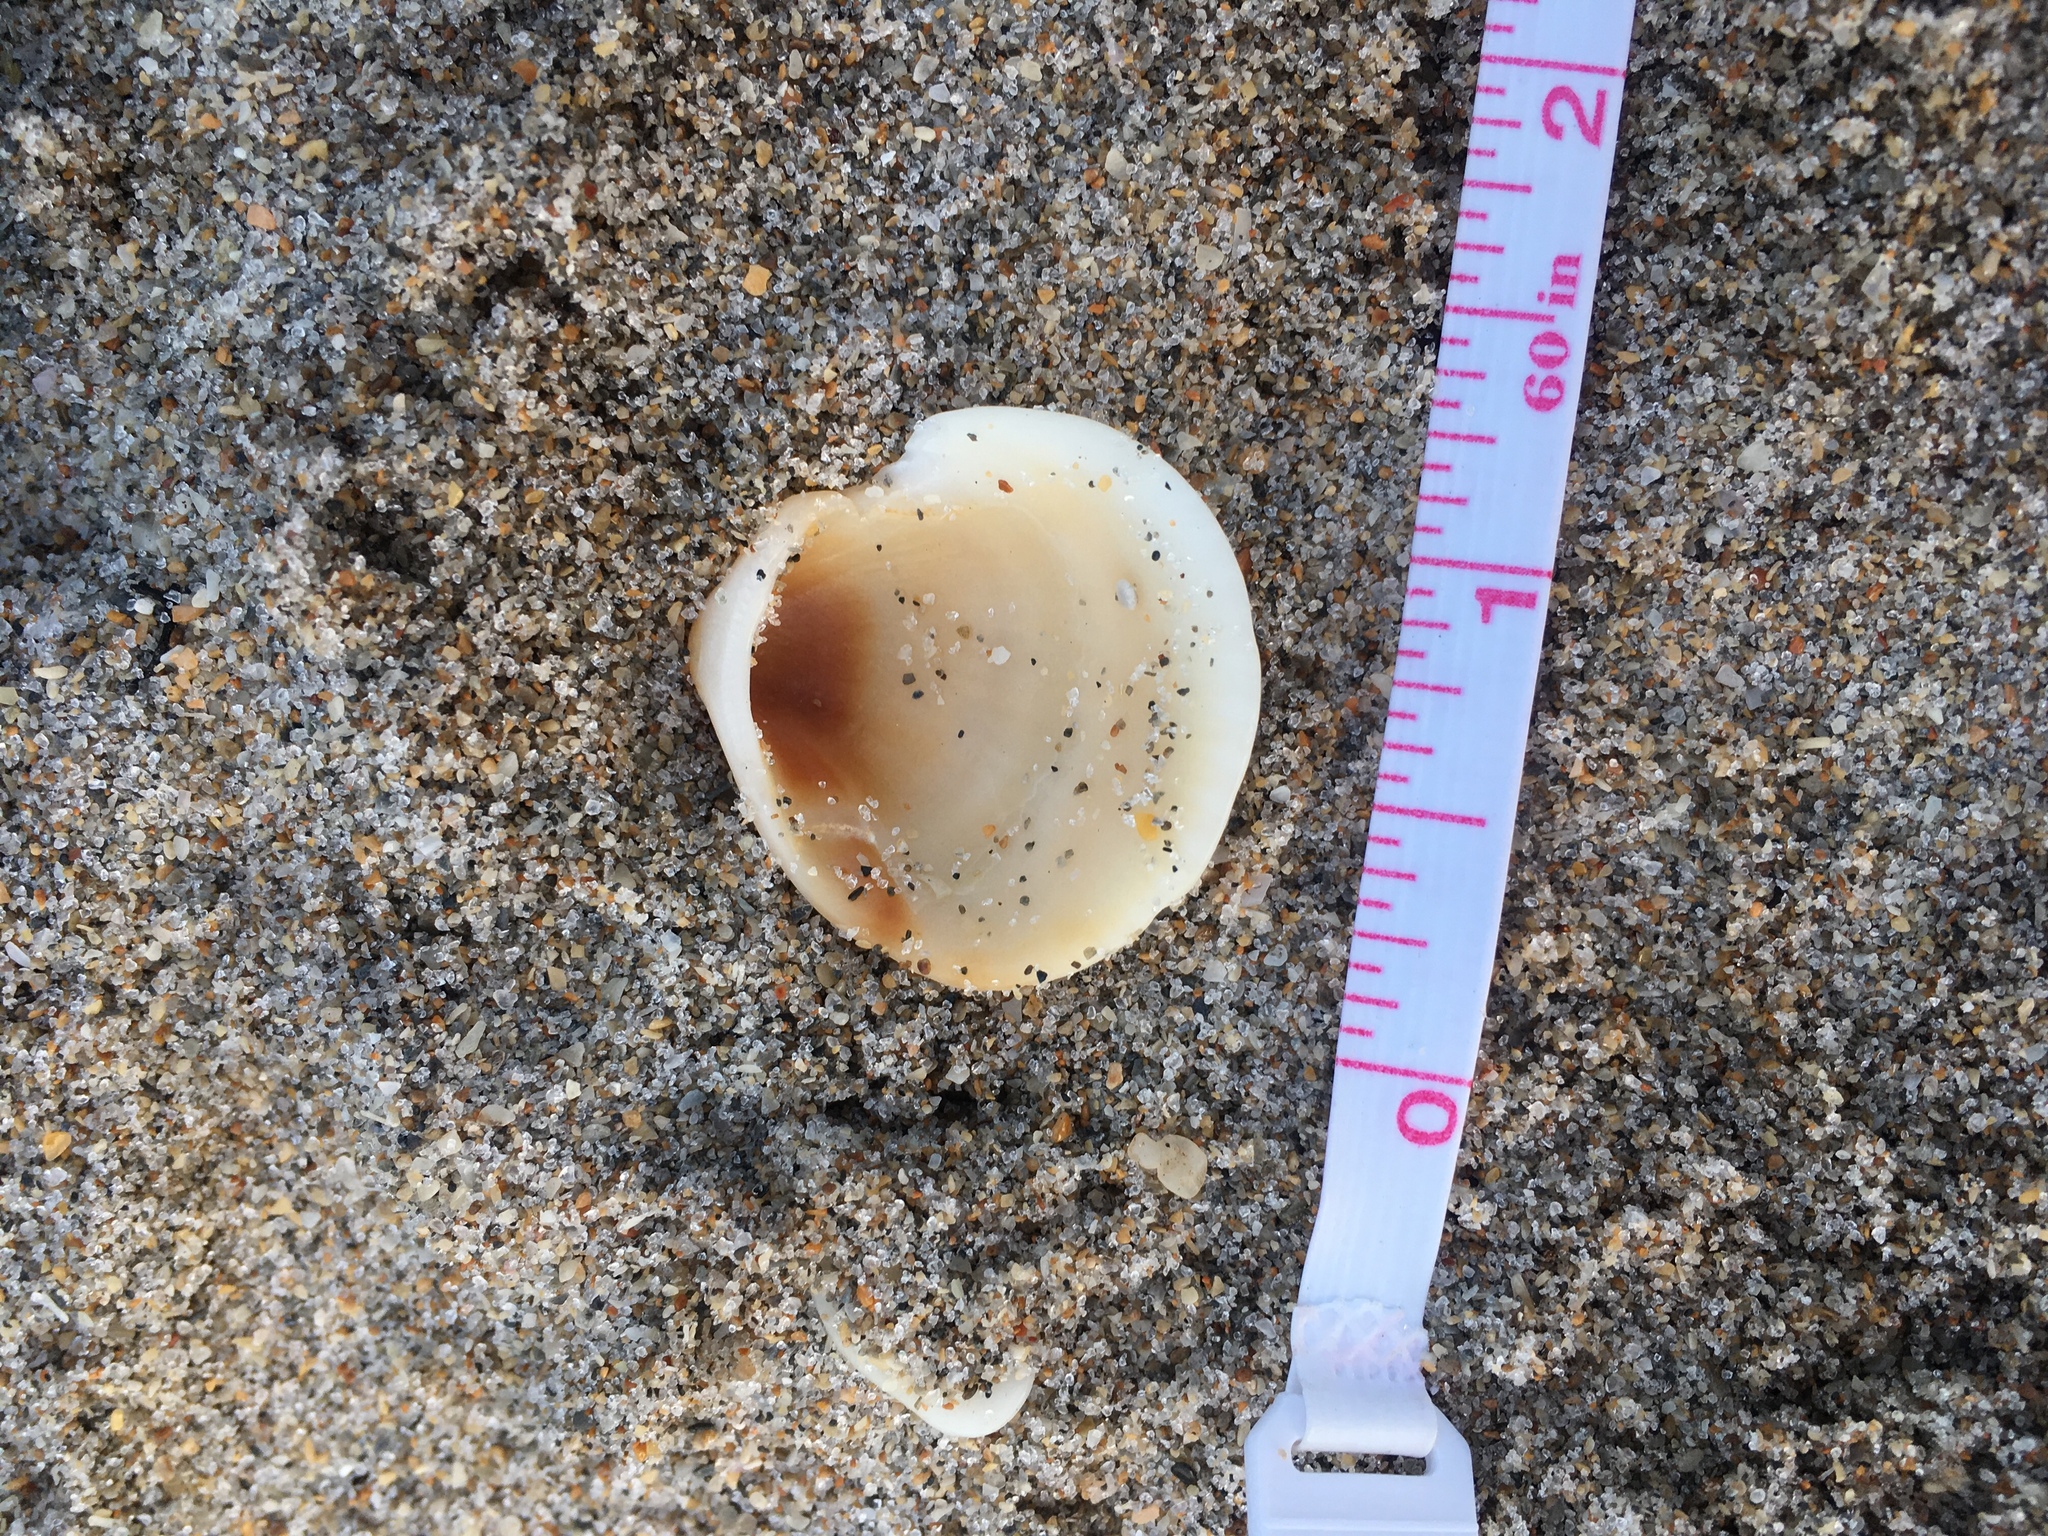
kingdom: Animalia
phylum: Mollusca
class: Bivalvia
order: Arcida
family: Glycymerididae
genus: Glycymeris
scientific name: Glycymeris spectralis
